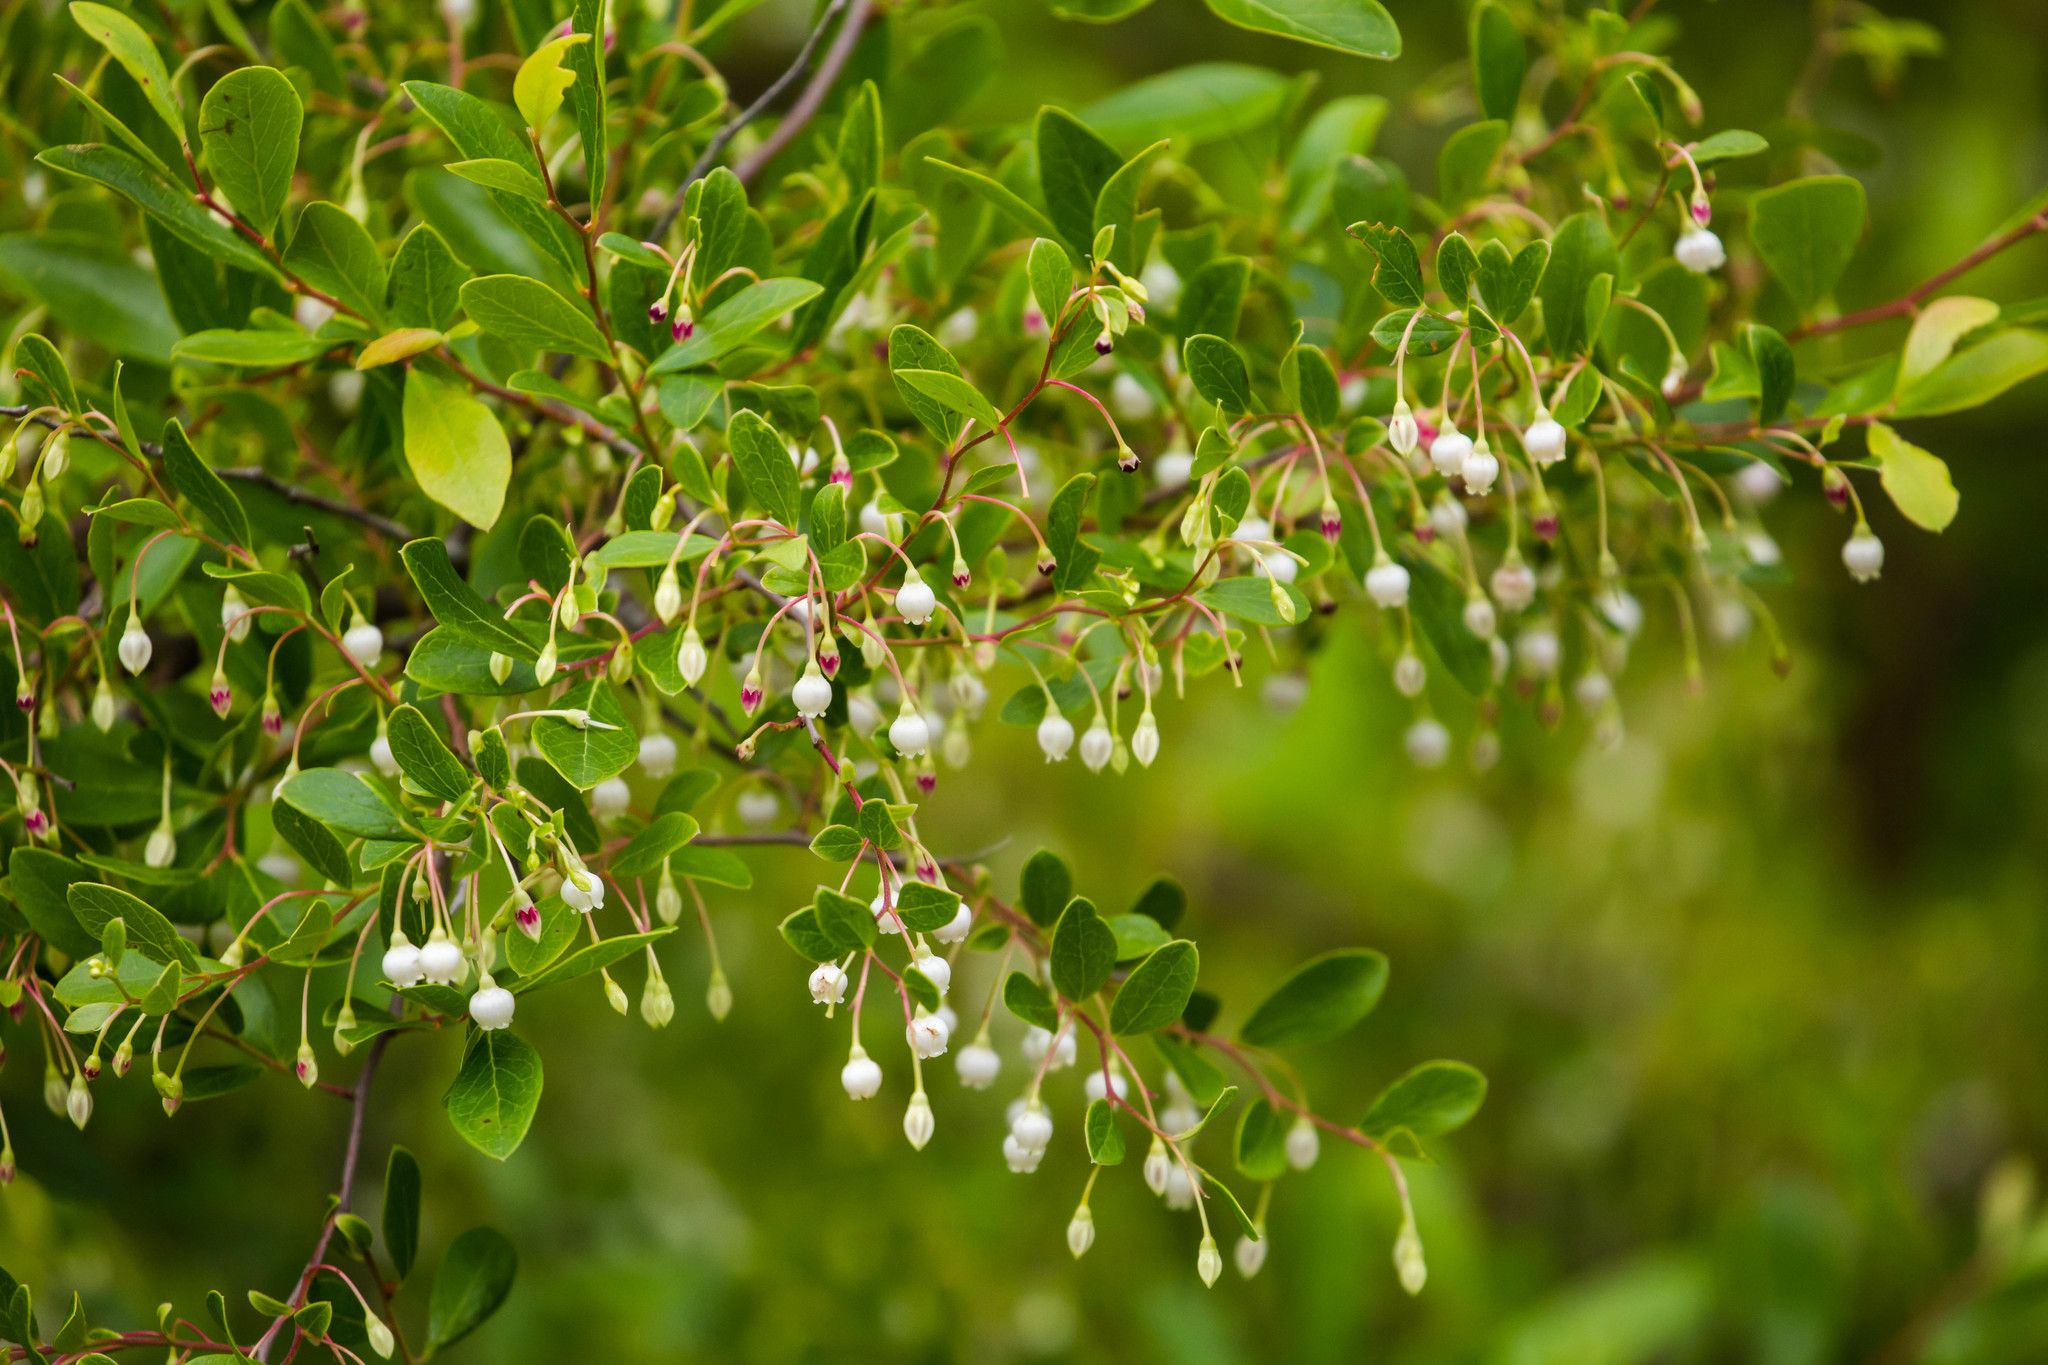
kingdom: Plantae
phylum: Tracheophyta
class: Magnoliopsida
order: Ericales
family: Ericaceae
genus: Vaccinium
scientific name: Vaccinium arboreum
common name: Farkleberry
